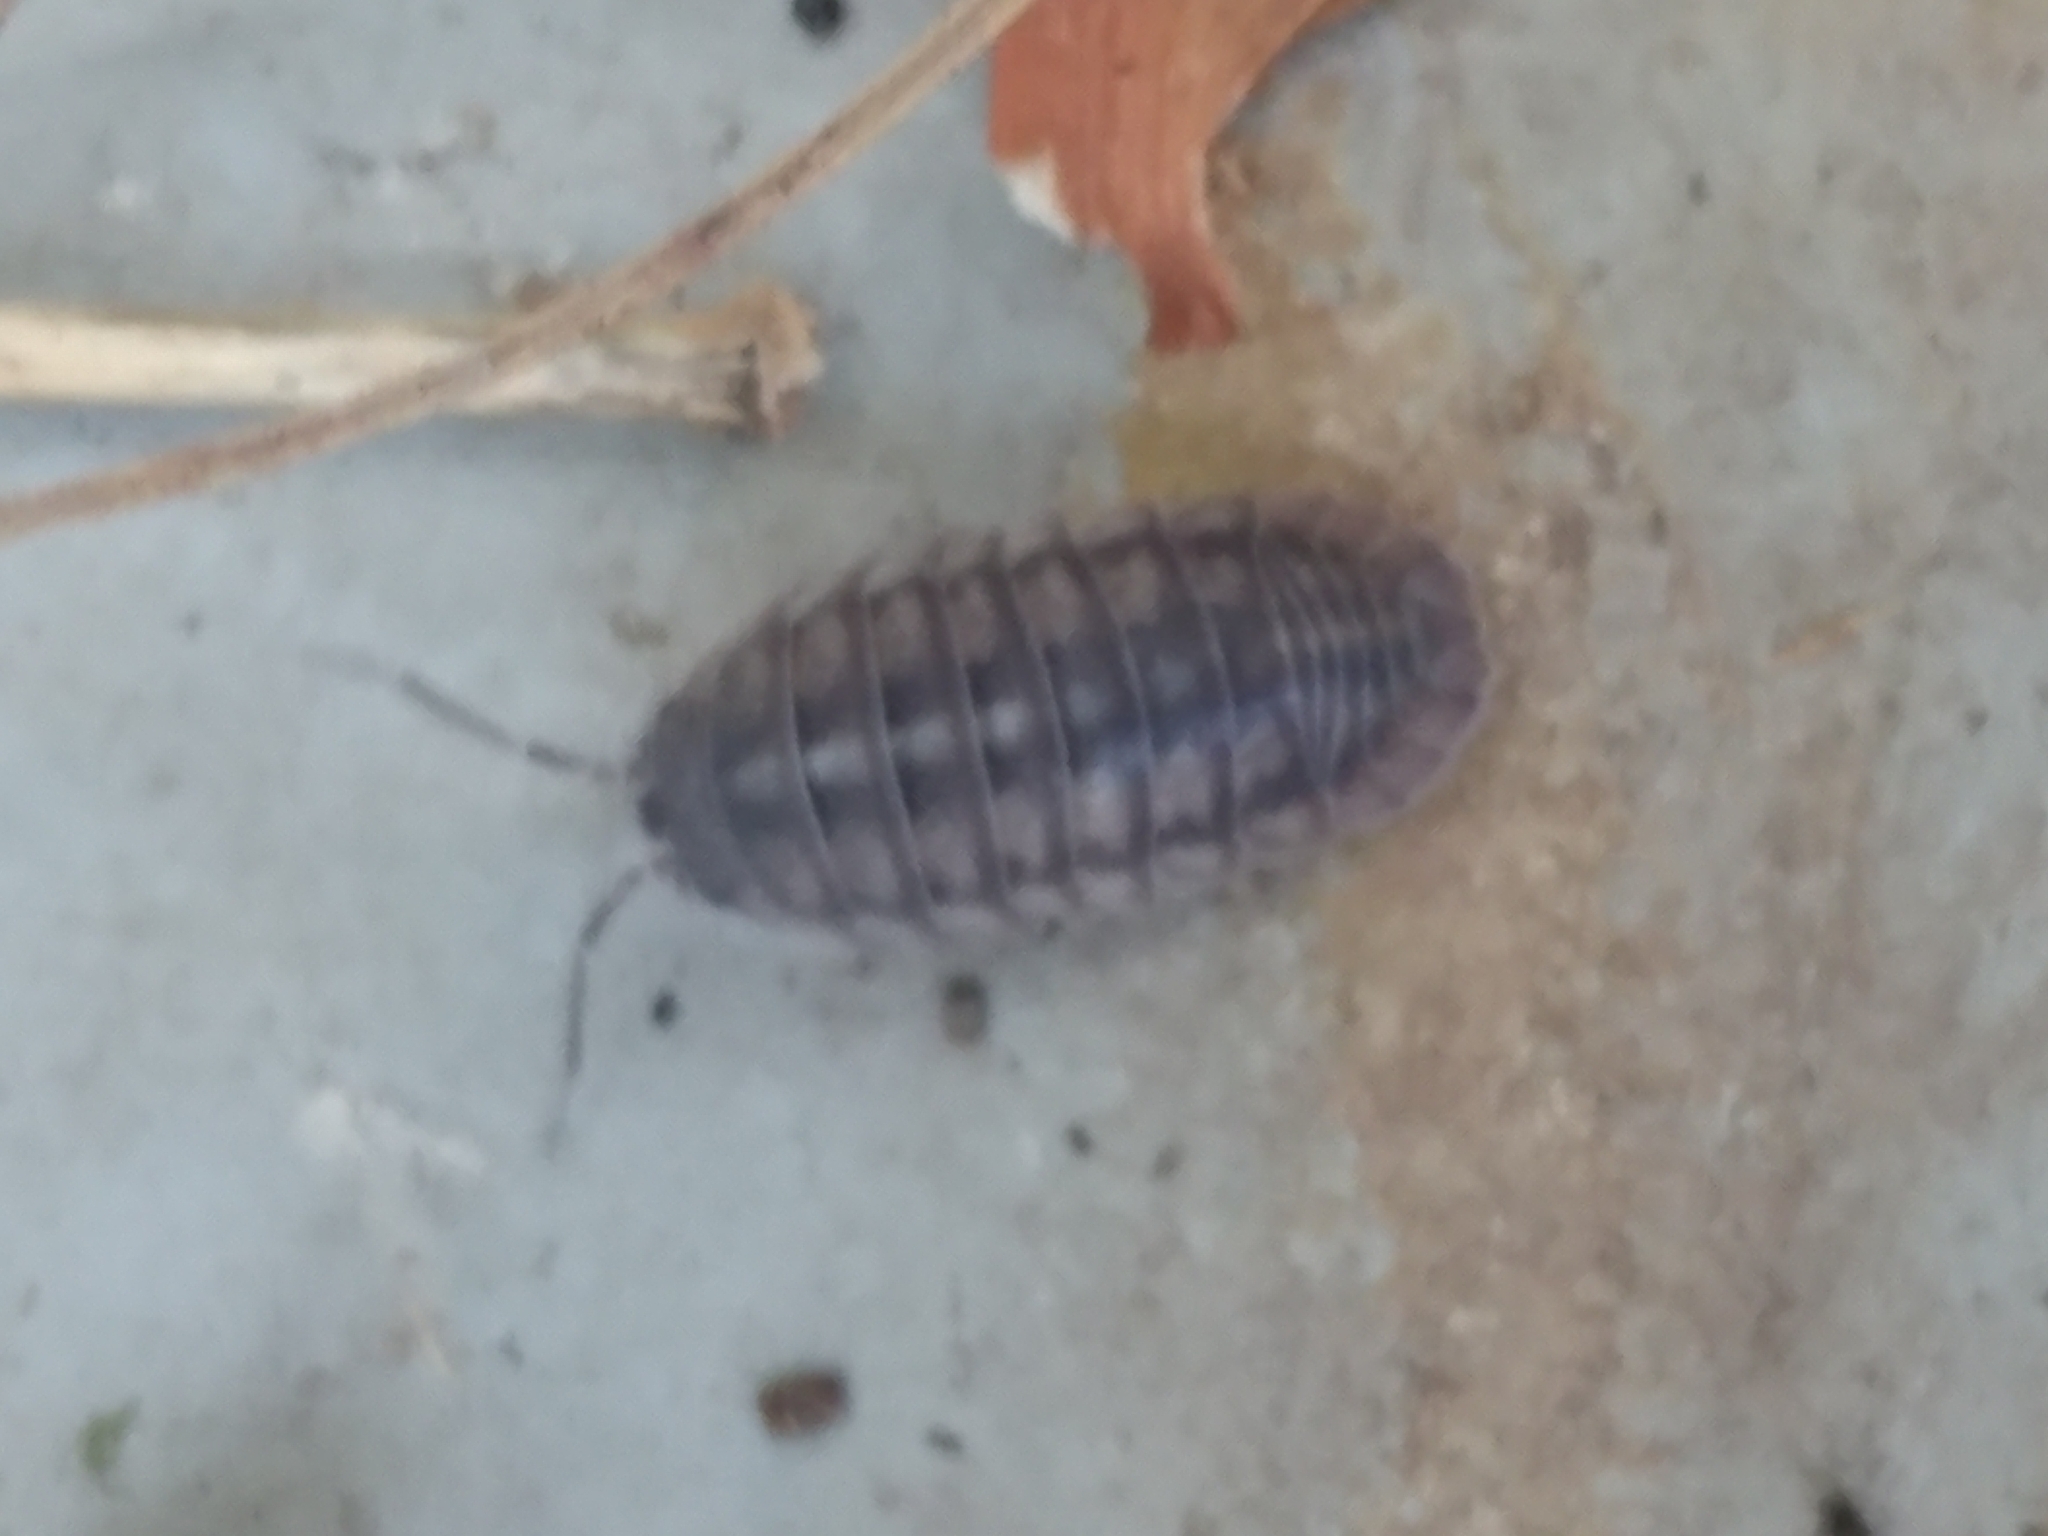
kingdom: Animalia
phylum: Arthropoda
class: Malacostraca
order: Isopoda
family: Armadillidiidae
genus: Armadillidium
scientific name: Armadillidium nasatum
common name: Isopod
